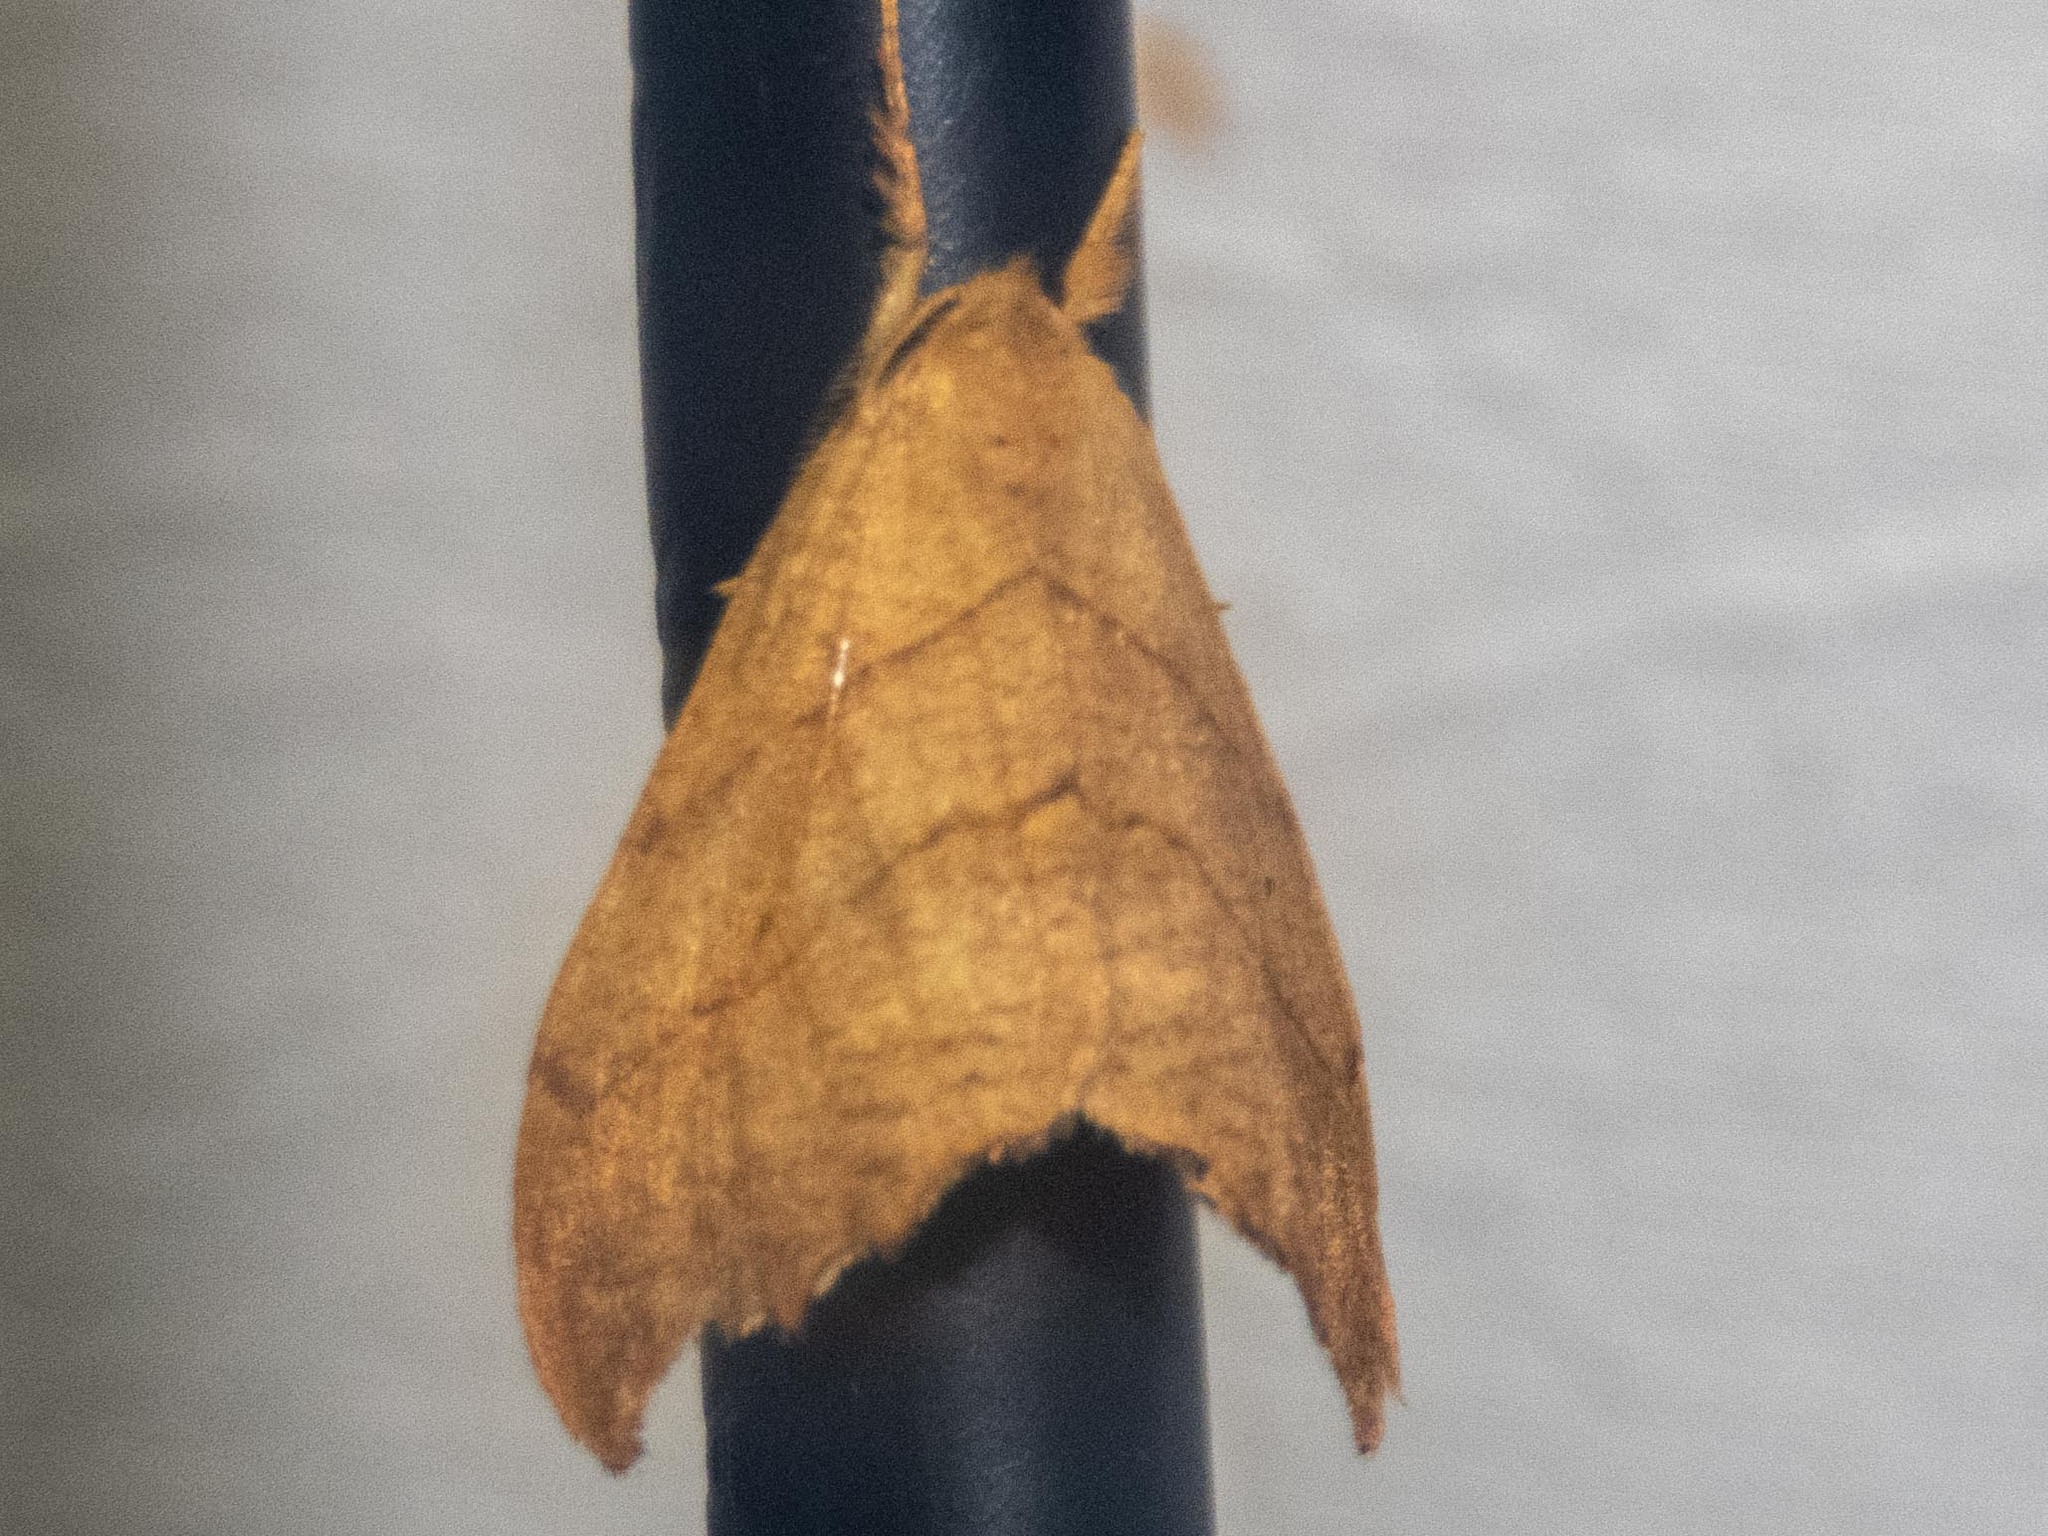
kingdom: Animalia
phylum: Arthropoda
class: Insecta
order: Lepidoptera
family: Drepanidae
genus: Falcaria
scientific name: Falcaria lacertinaria
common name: Scalloped hook-tip
